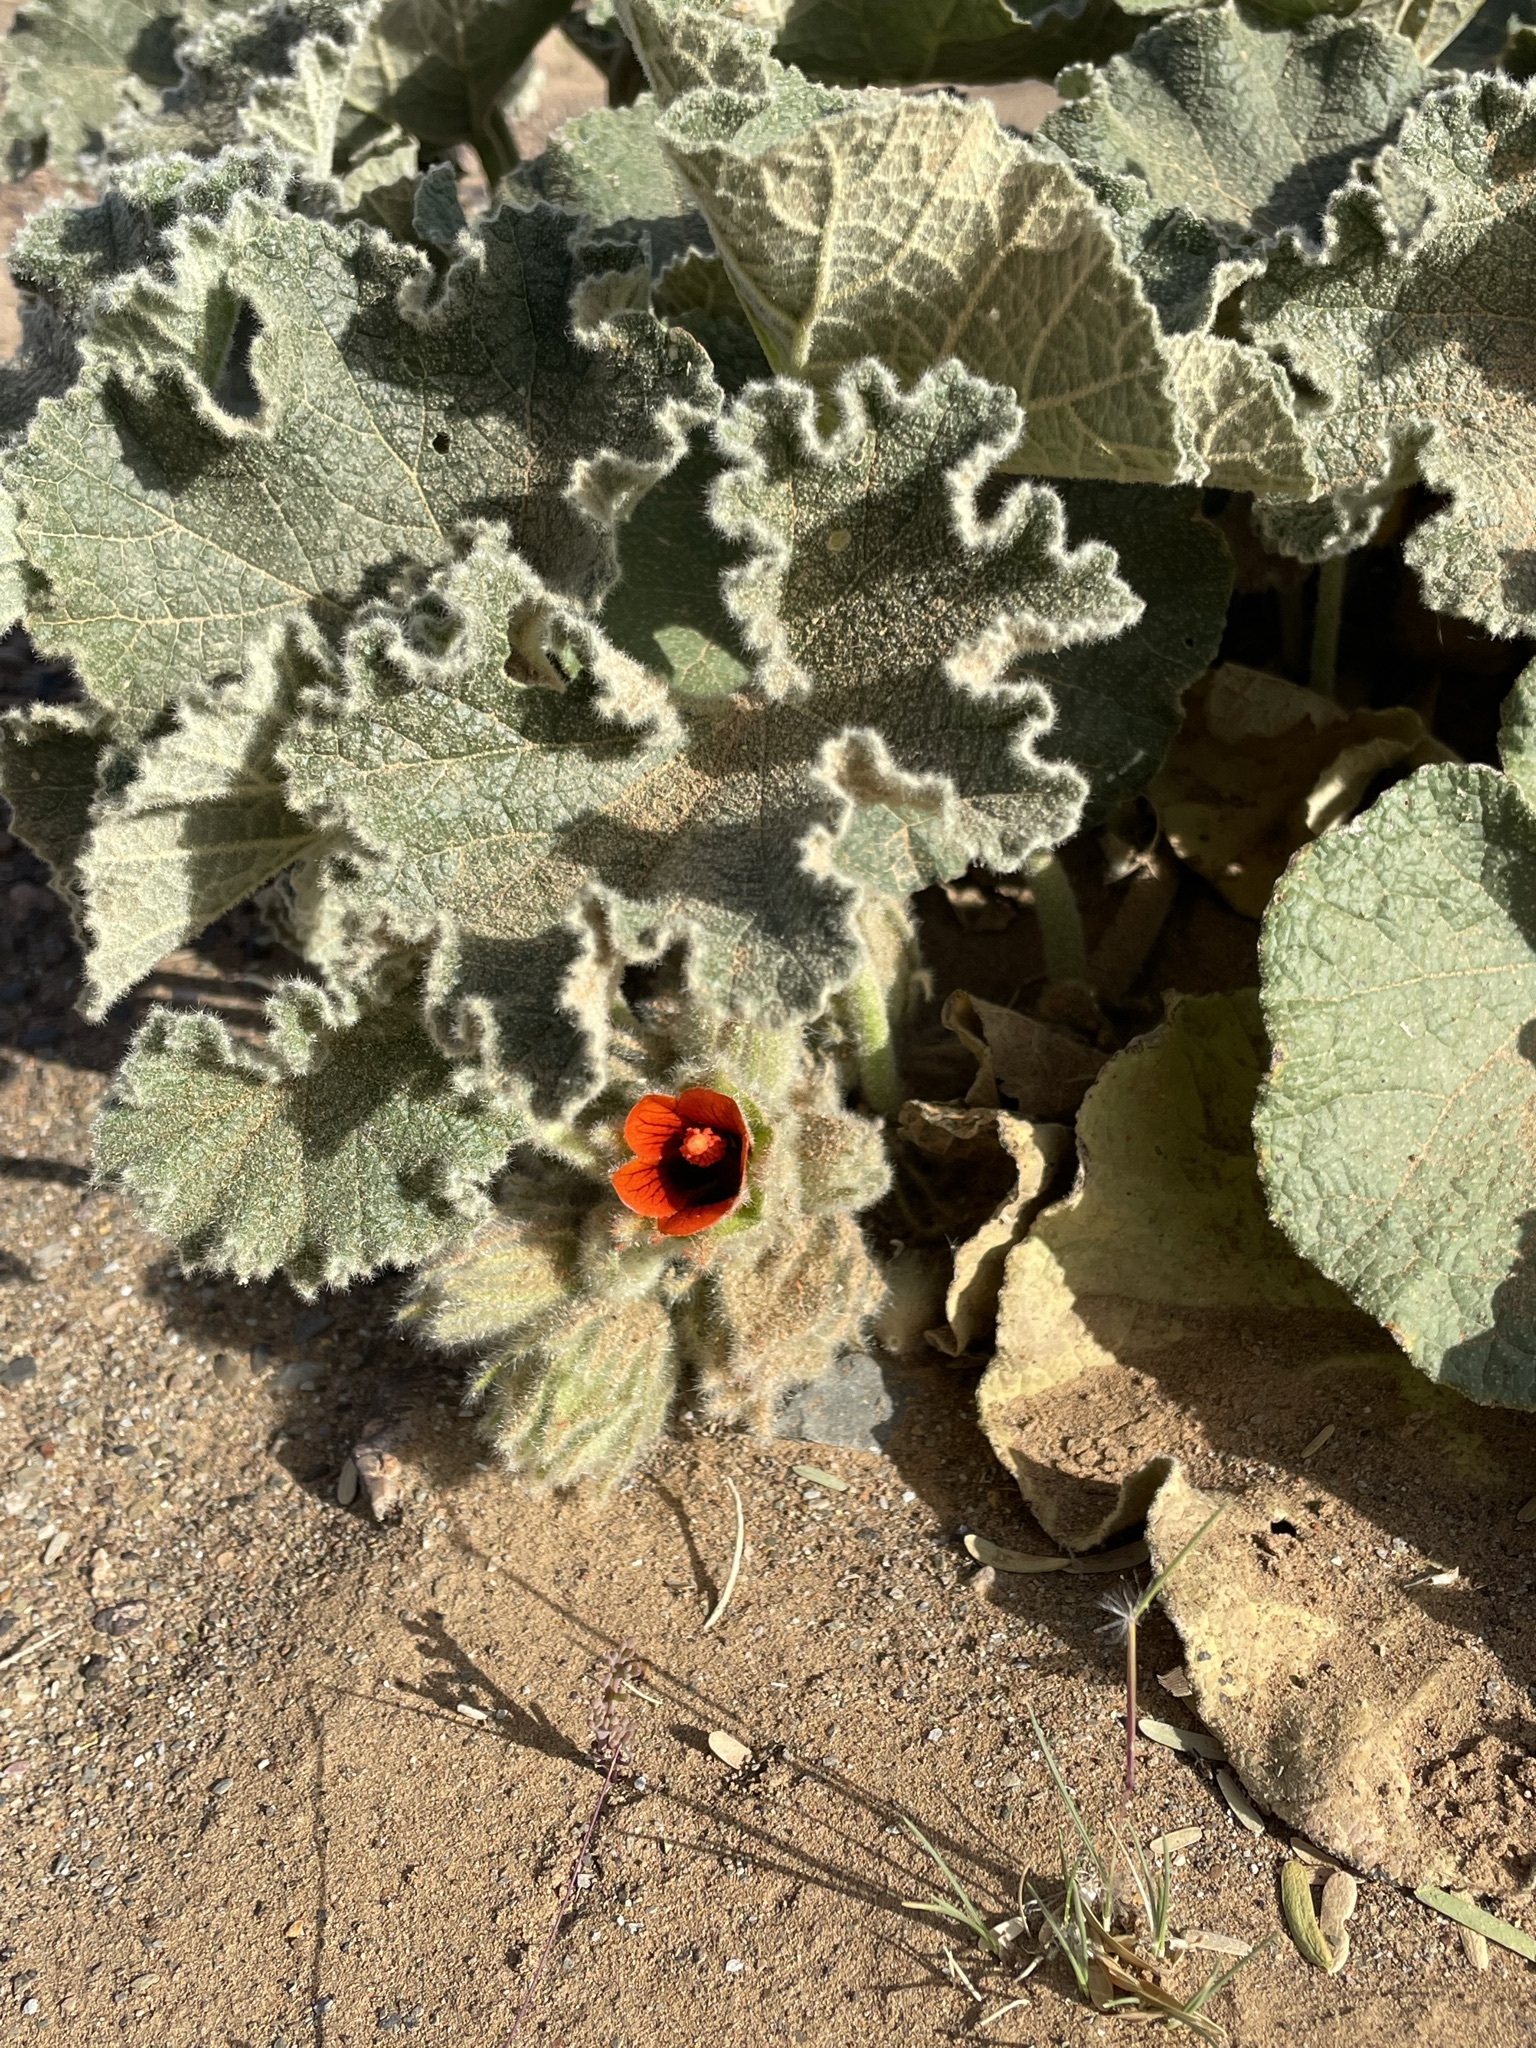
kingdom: Plantae
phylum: Tracheophyta
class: Magnoliopsida
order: Malvales
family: Malvaceae
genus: Radyera
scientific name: Radyera urens
